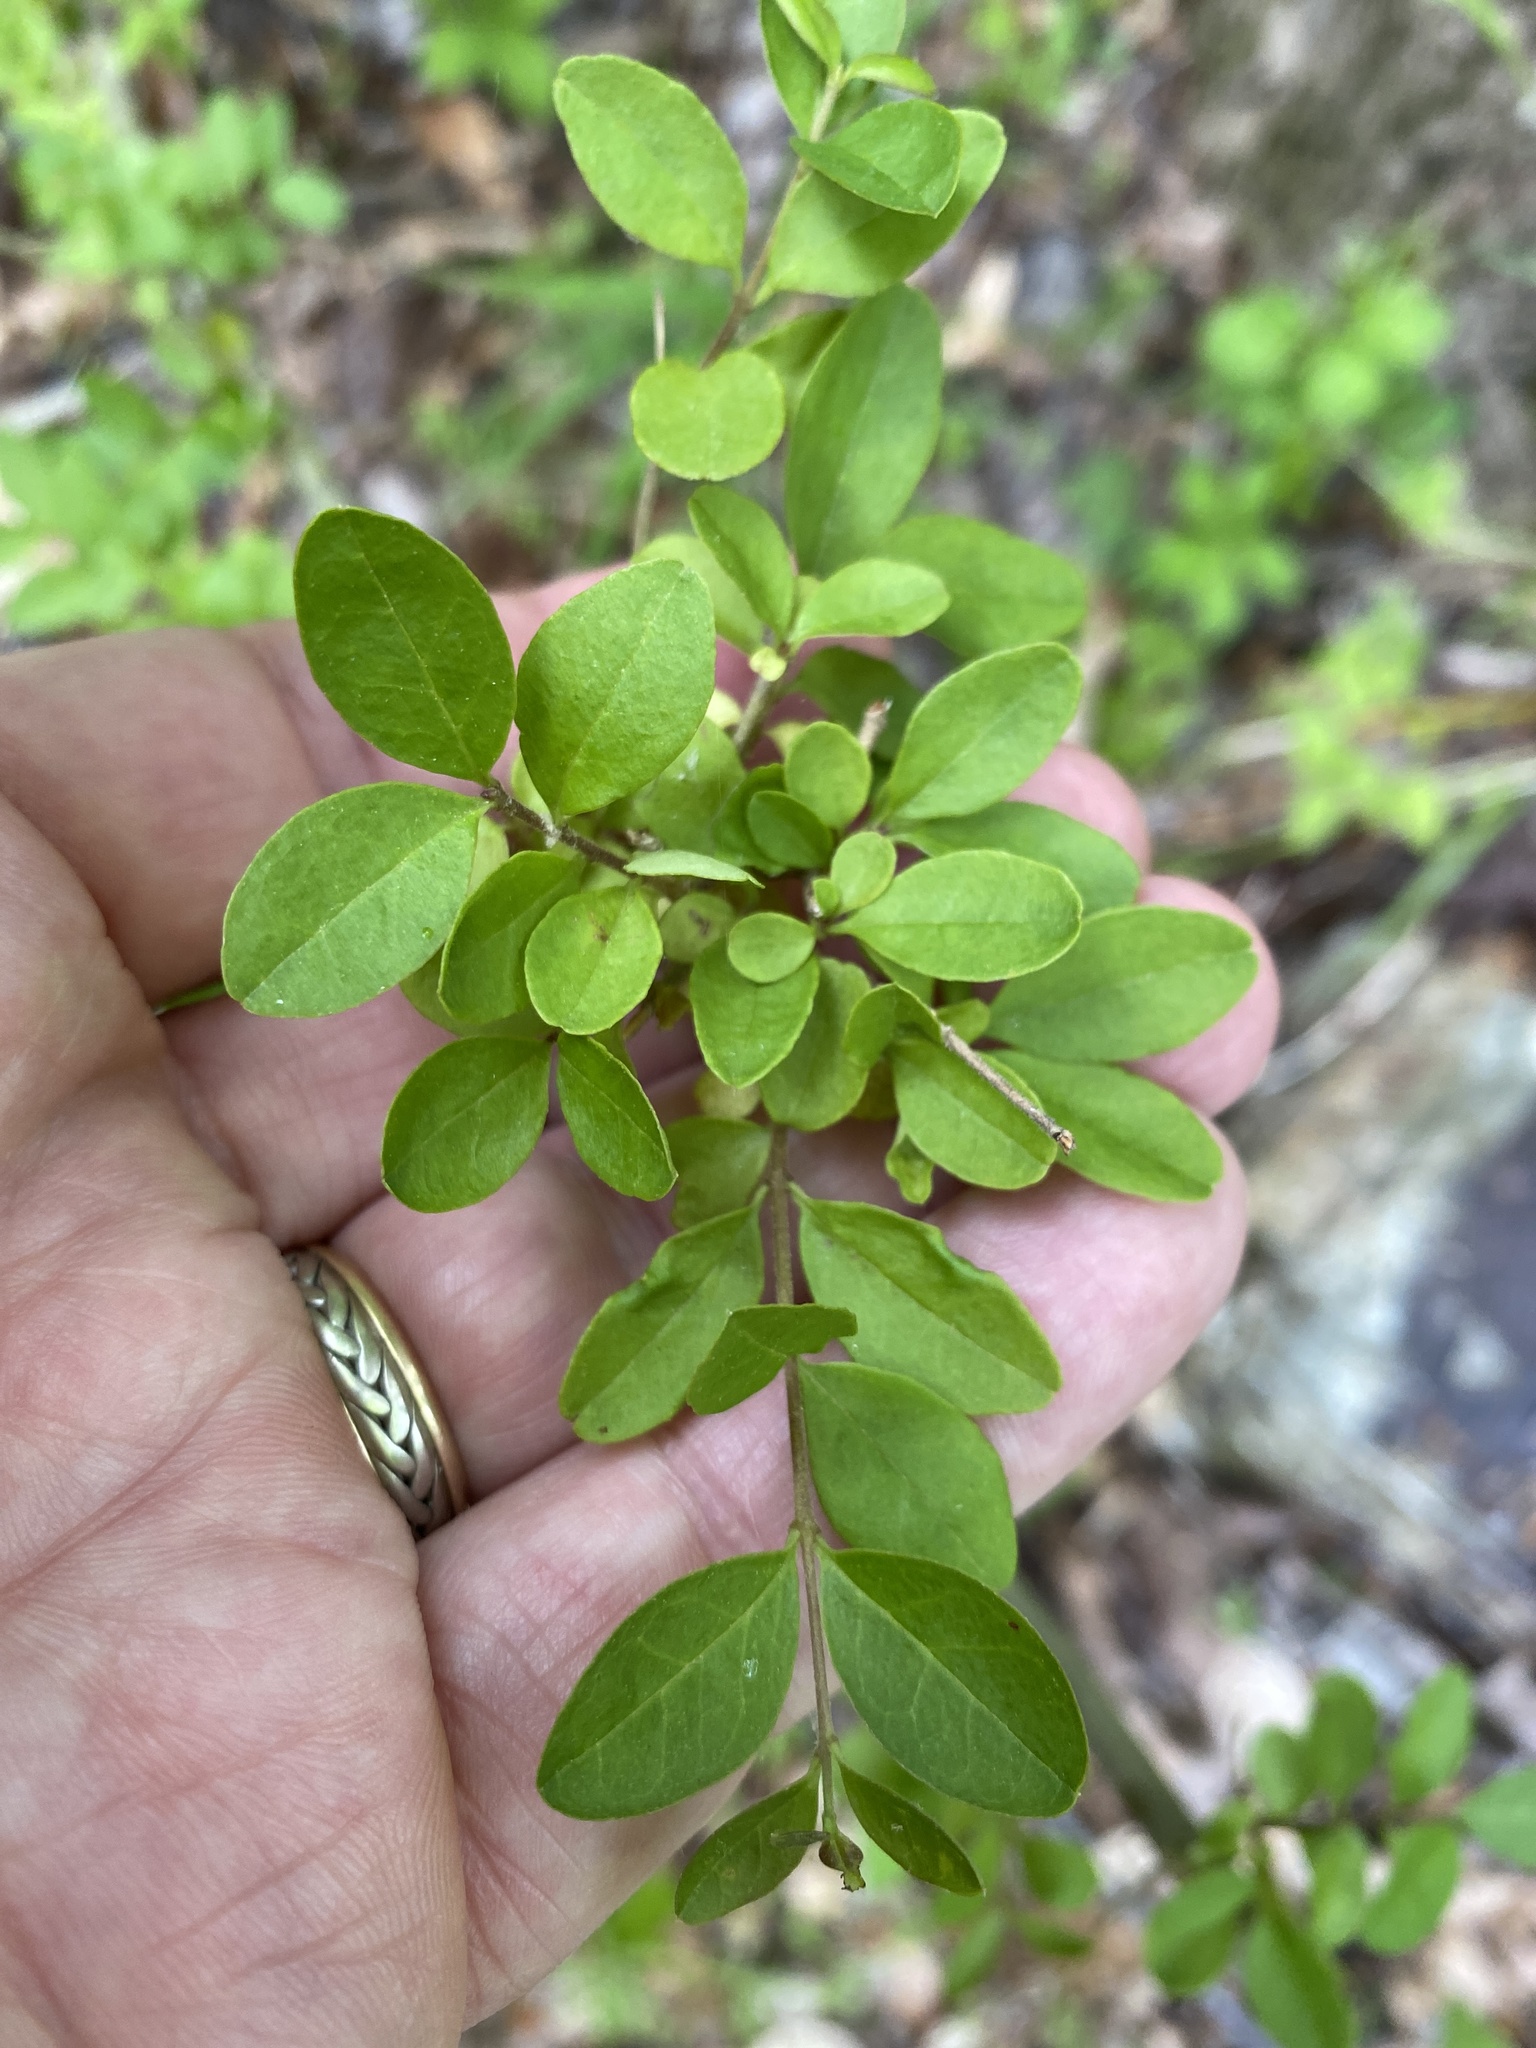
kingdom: Plantae
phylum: Tracheophyta
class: Magnoliopsida
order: Lamiales
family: Oleaceae
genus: Ligustrum
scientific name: Ligustrum sinense
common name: Chinese privet
